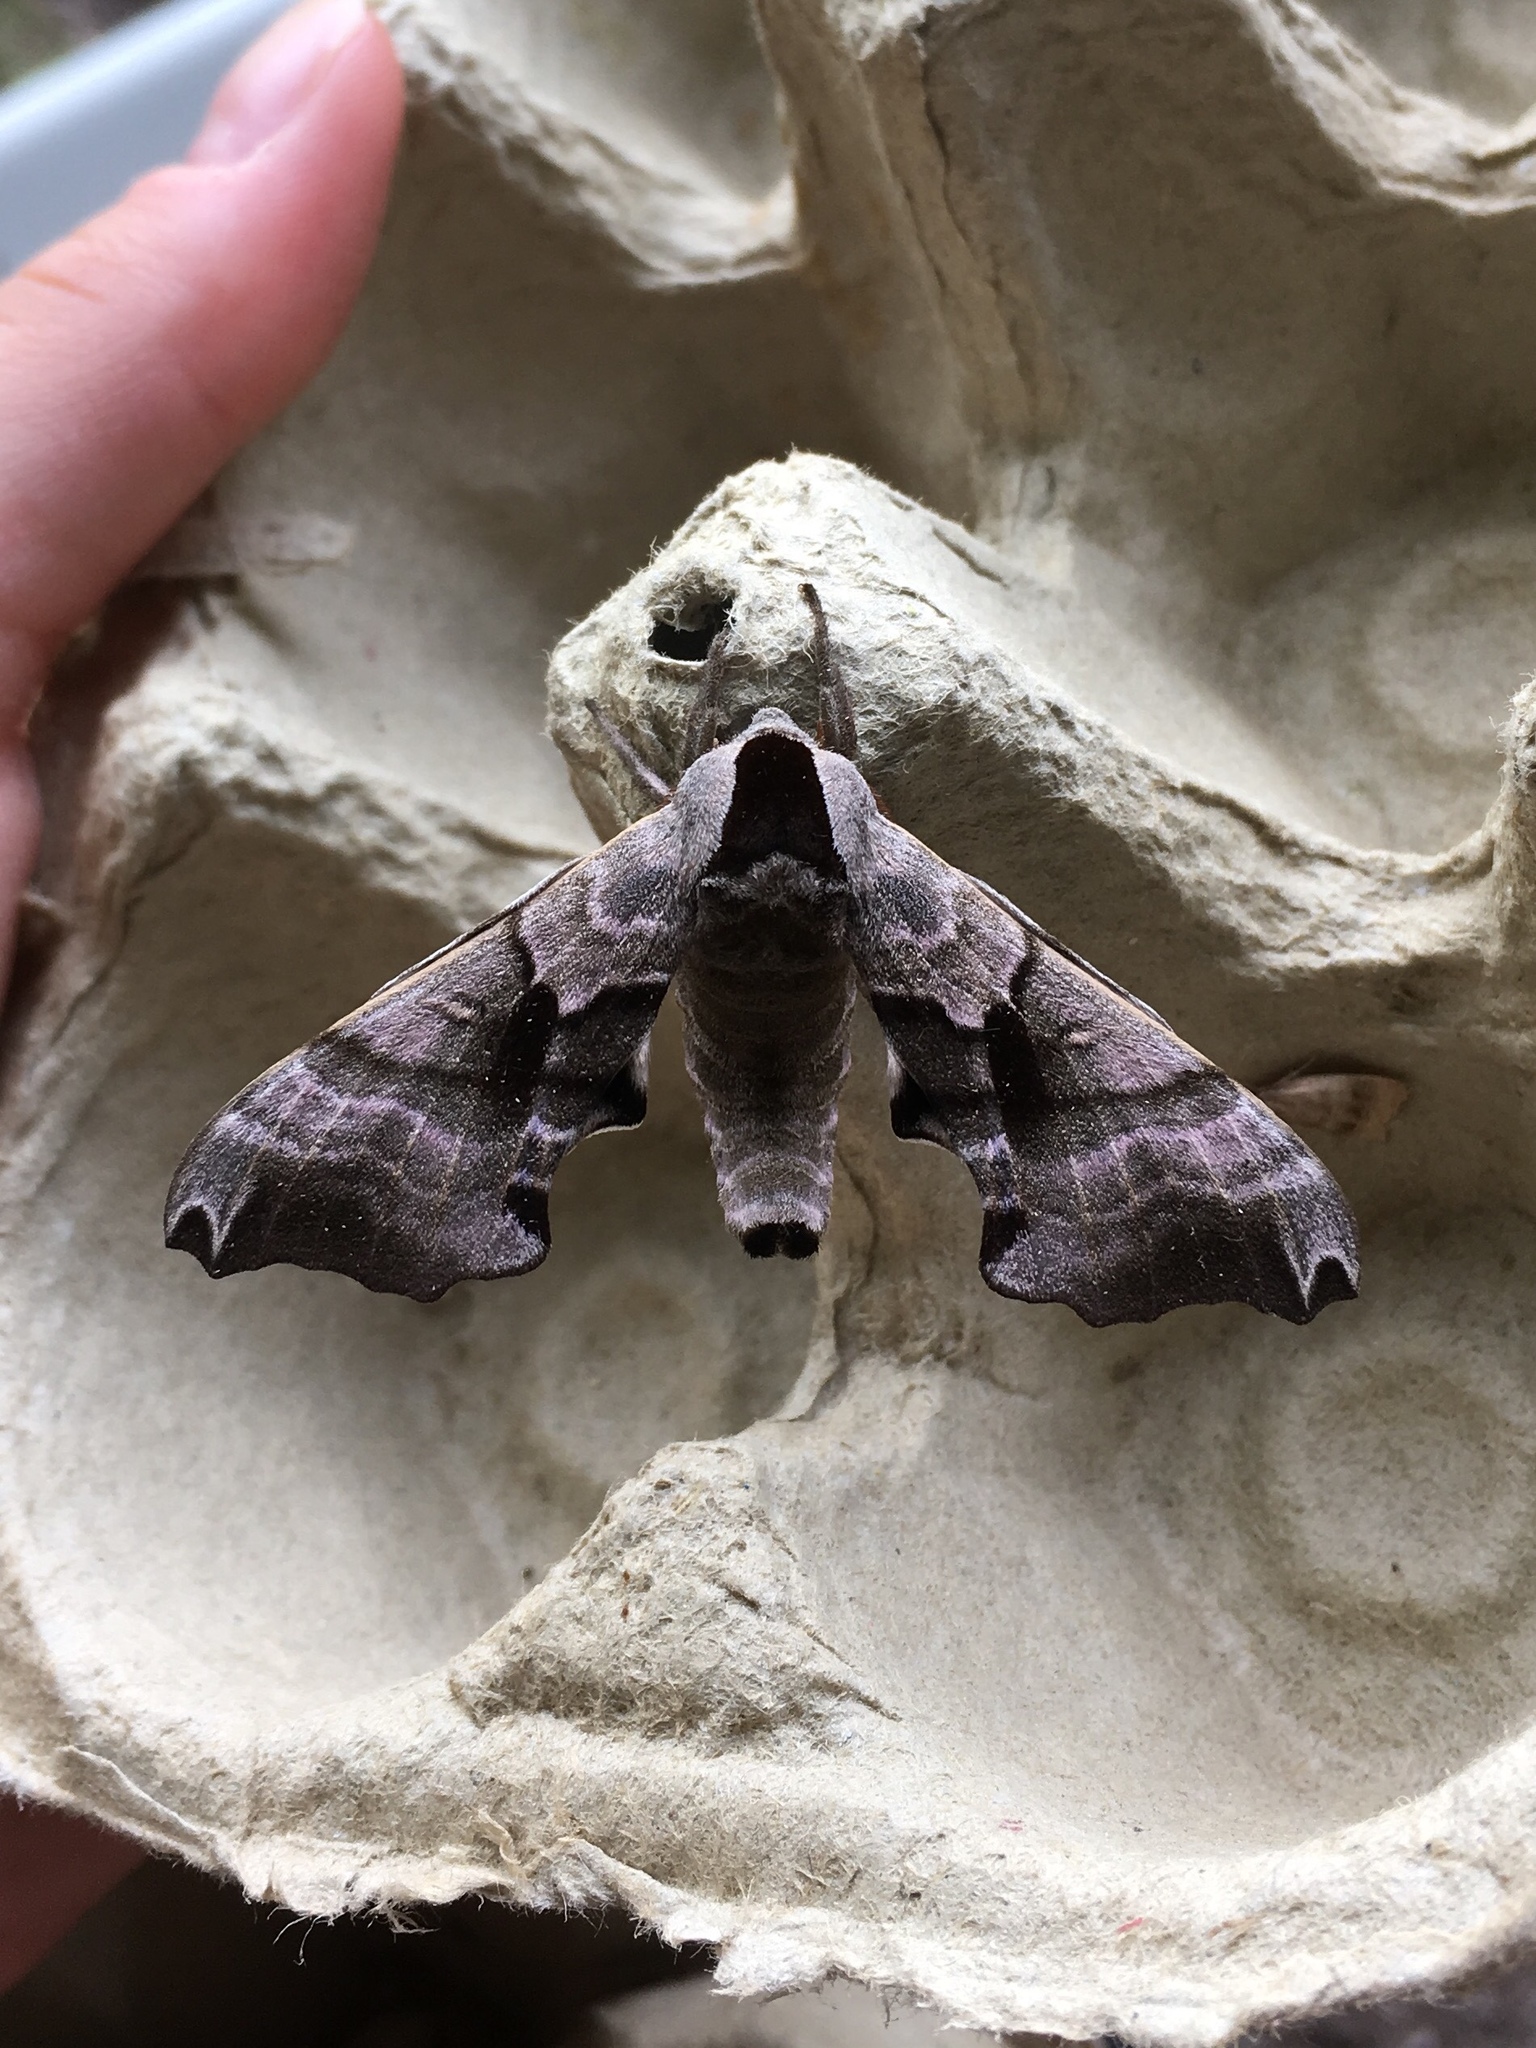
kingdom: Animalia
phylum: Arthropoda
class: Insecta
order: Lepidoptera
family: Sphingidae
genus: Smerinthus
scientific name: Smerinthus jamaicensis
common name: Twin spotted sphinx
